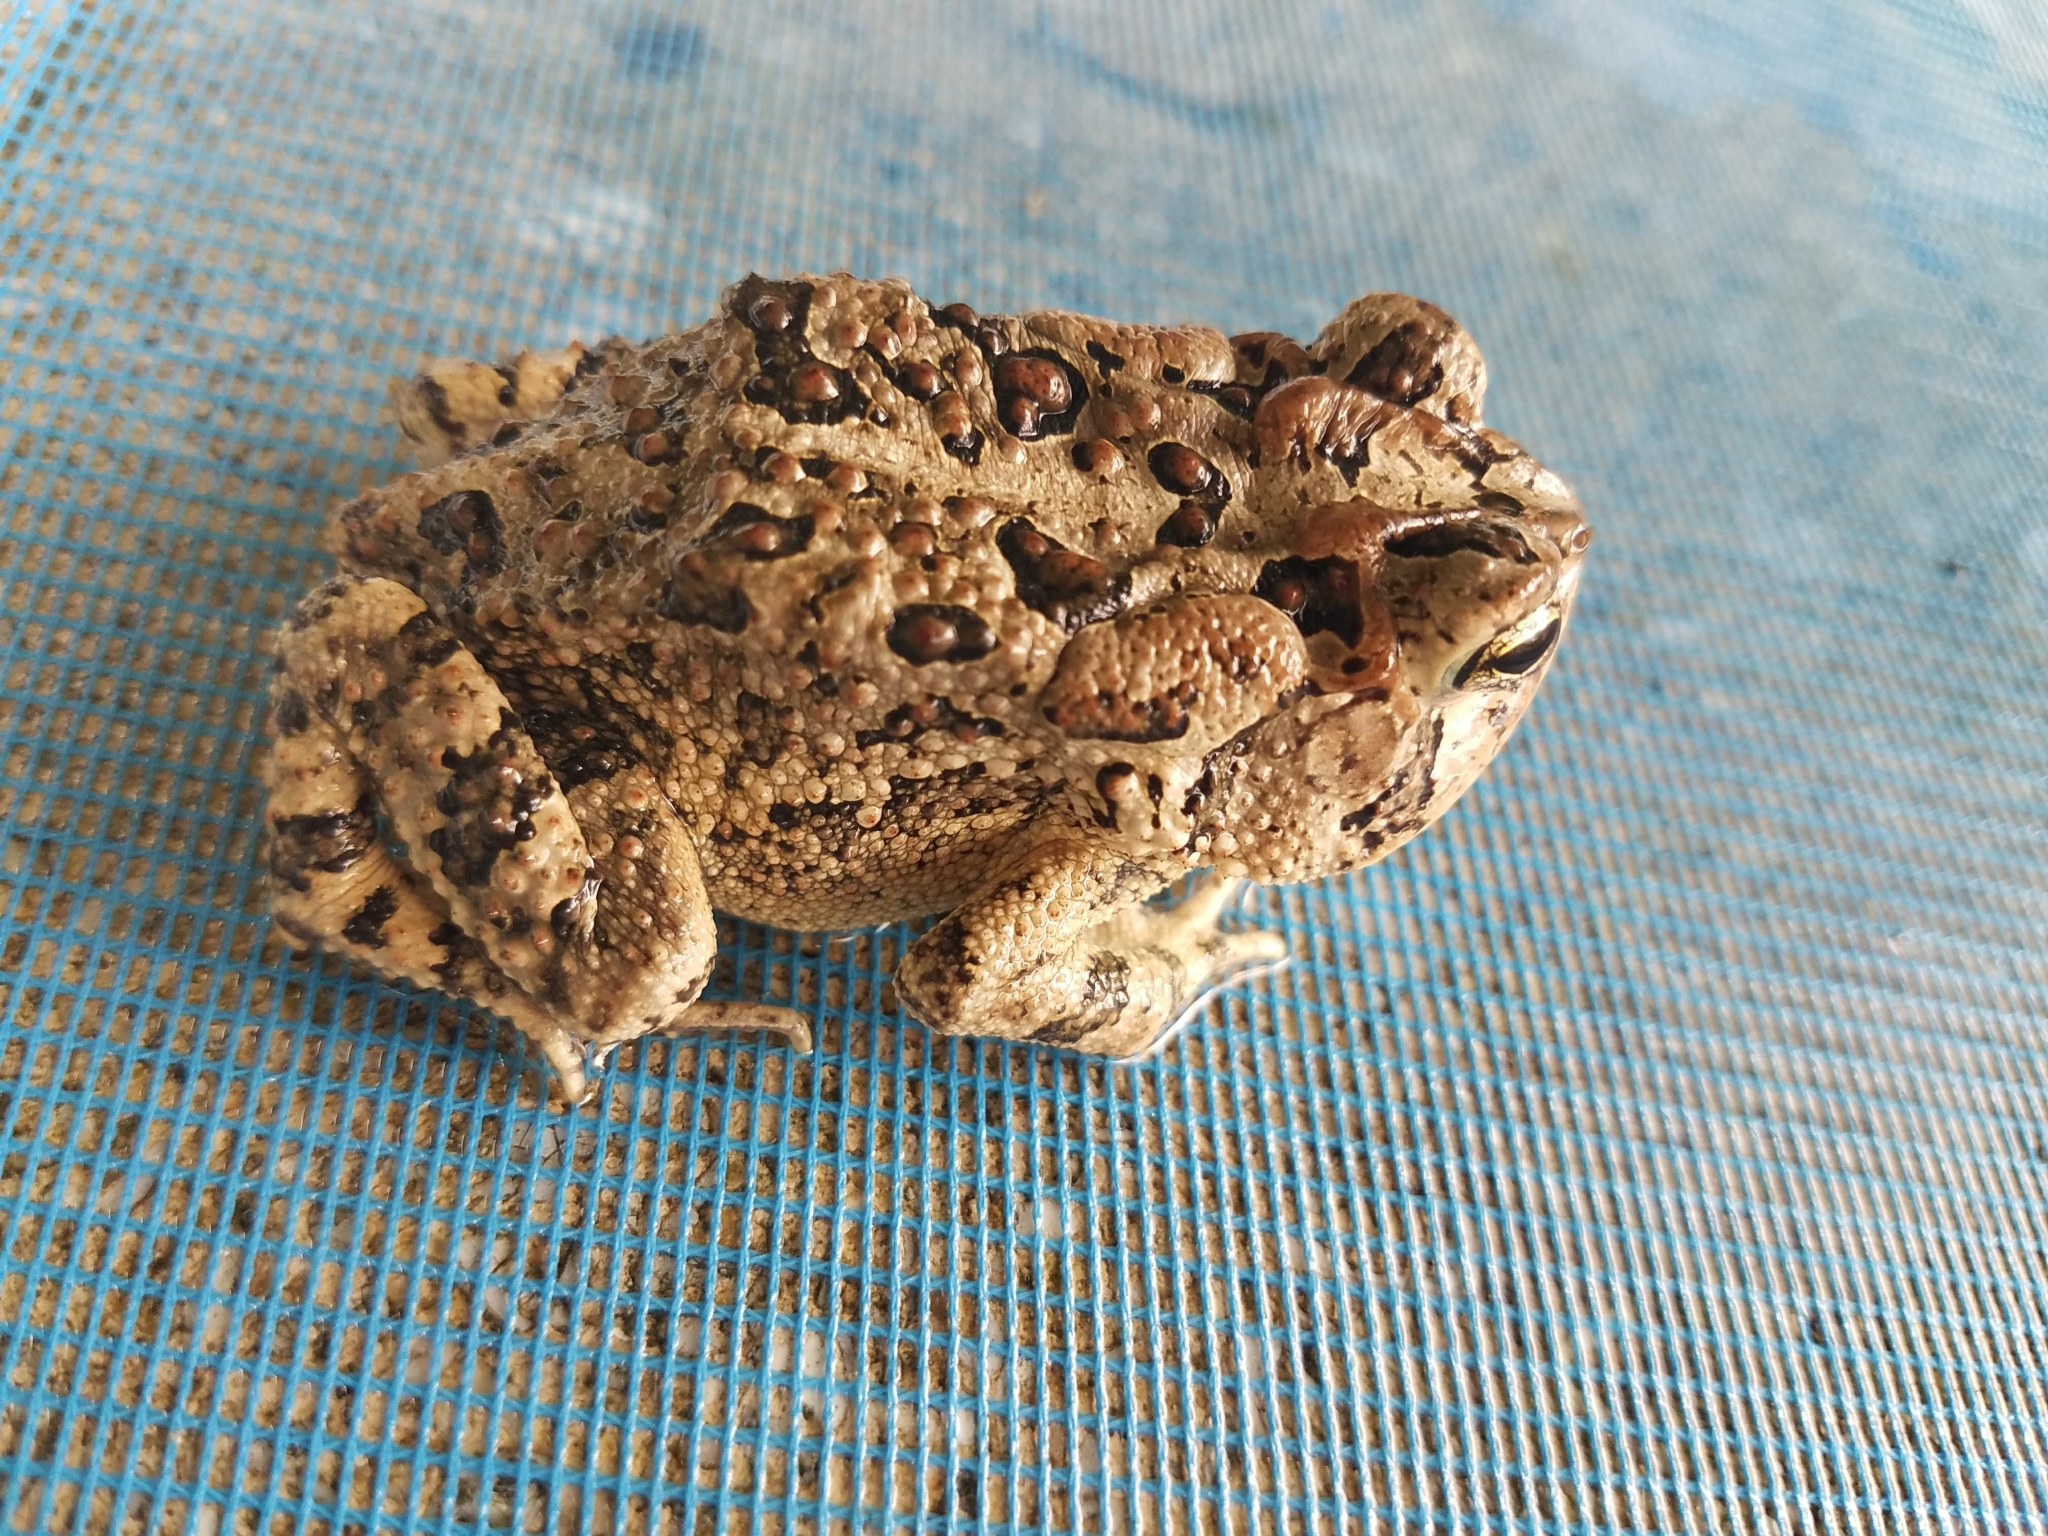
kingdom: Animalia
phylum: Chordata
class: Amphibia
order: Anura
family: Bufonidae
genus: Anaxyrus
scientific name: Anaxyrus terrestris
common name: Southern toad
